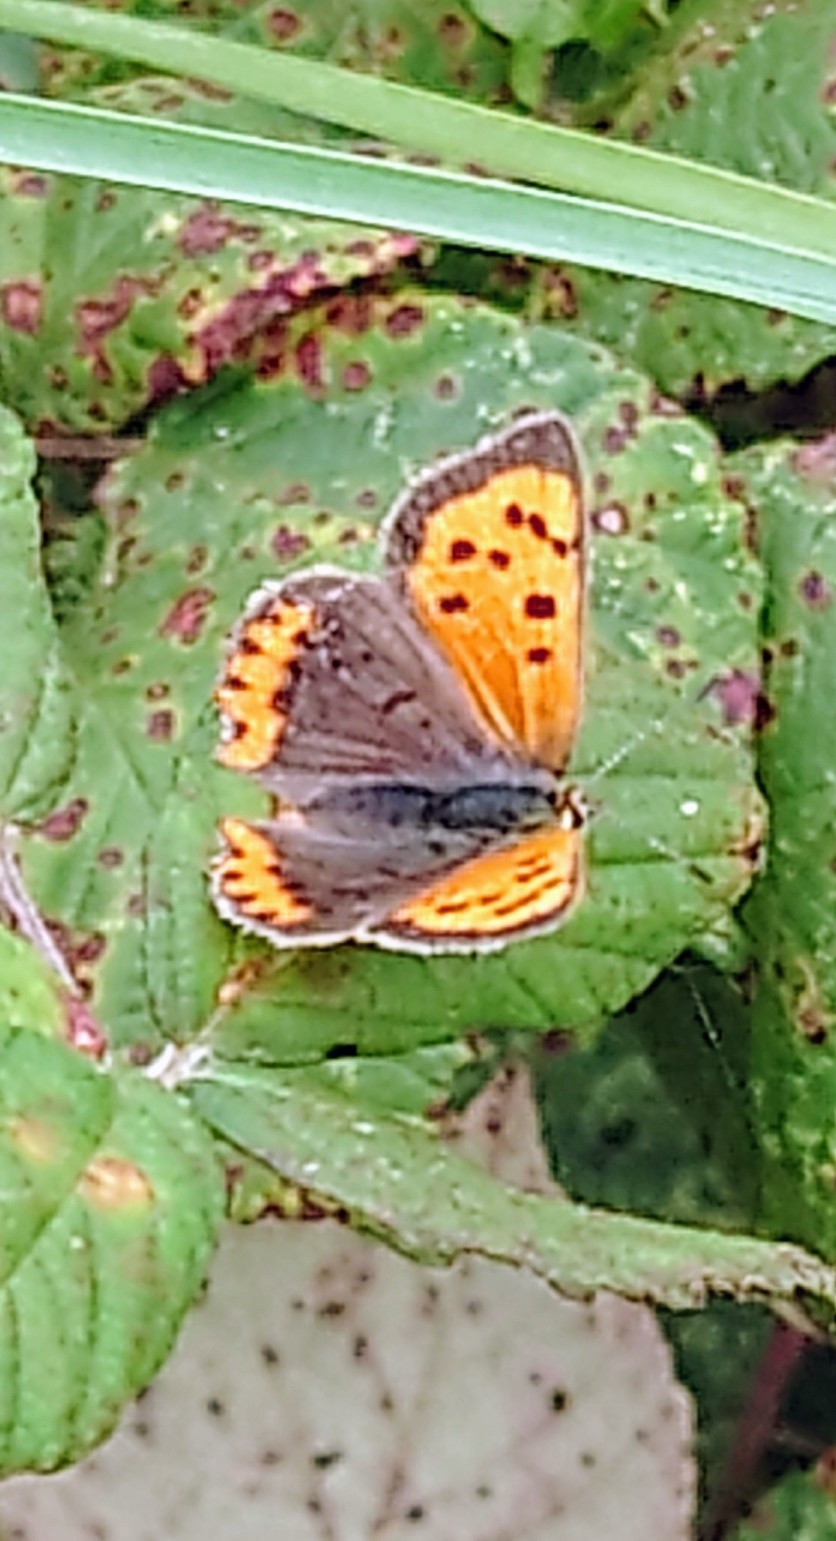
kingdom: Animalia
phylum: Arthropoda
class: Insecta
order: Lepidoptera
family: Lycaenidae
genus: Lycaena
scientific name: Lycaena phlaeas
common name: Small copper
